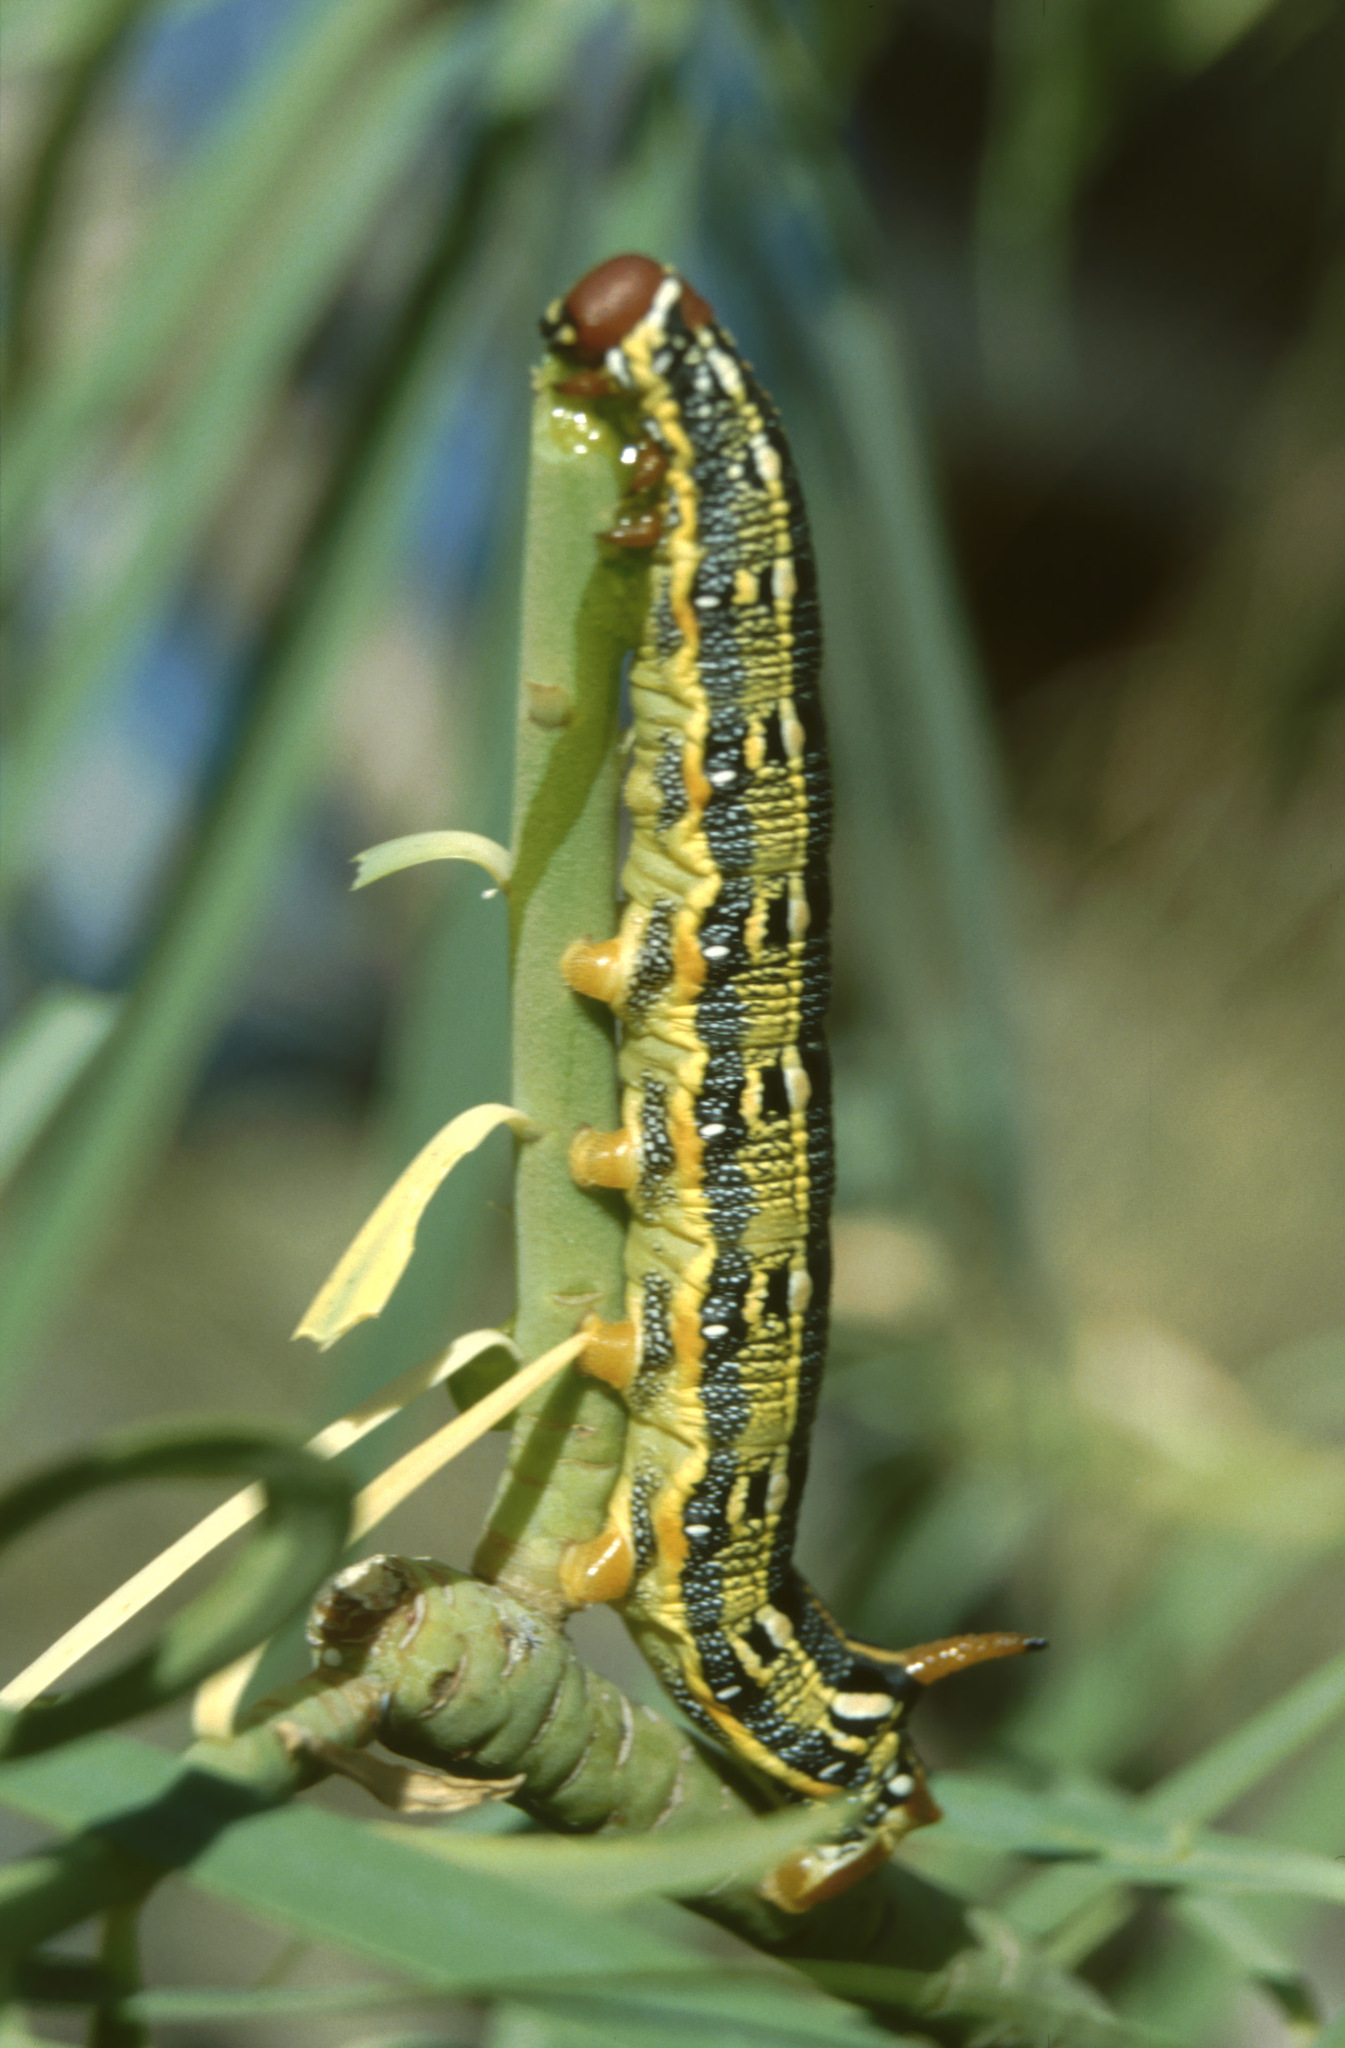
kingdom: Animalia
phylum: Arthropoda
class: Insecta
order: Lepidoptera
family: Sphingidae
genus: Hyles
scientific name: Hyles tithymali
